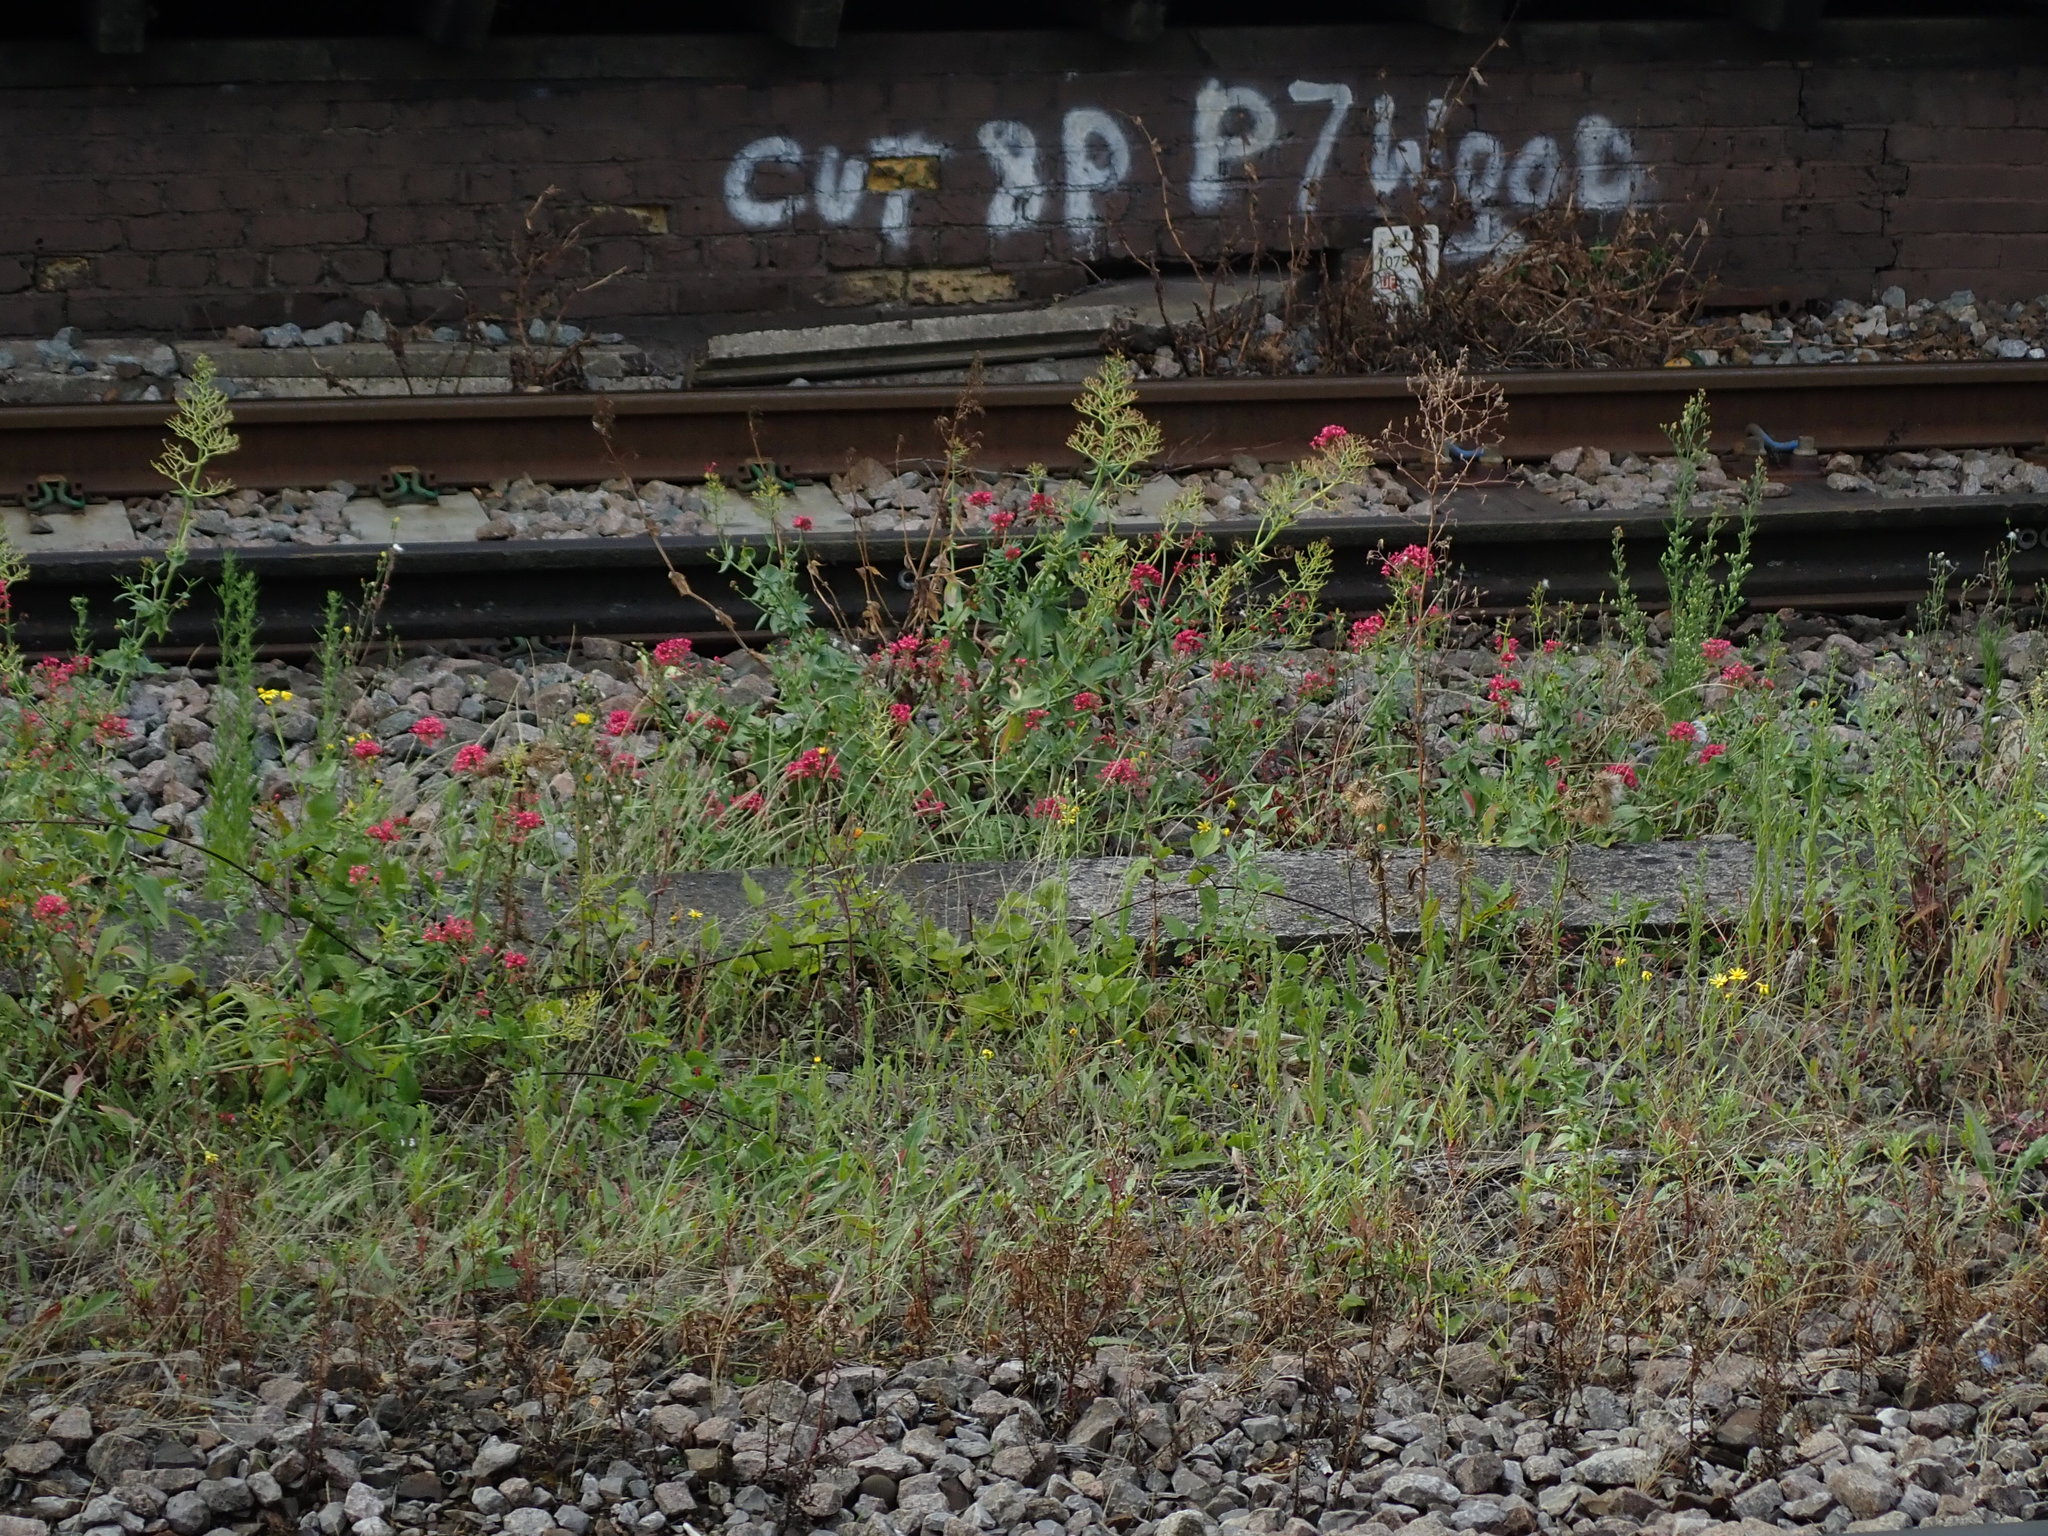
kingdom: Plantae
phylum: Tracheophyta
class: Magnoliopsida
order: Dipsacales
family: Caprifoliaceae
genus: Centranthus
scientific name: Centranthus ruber
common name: Red valerian
